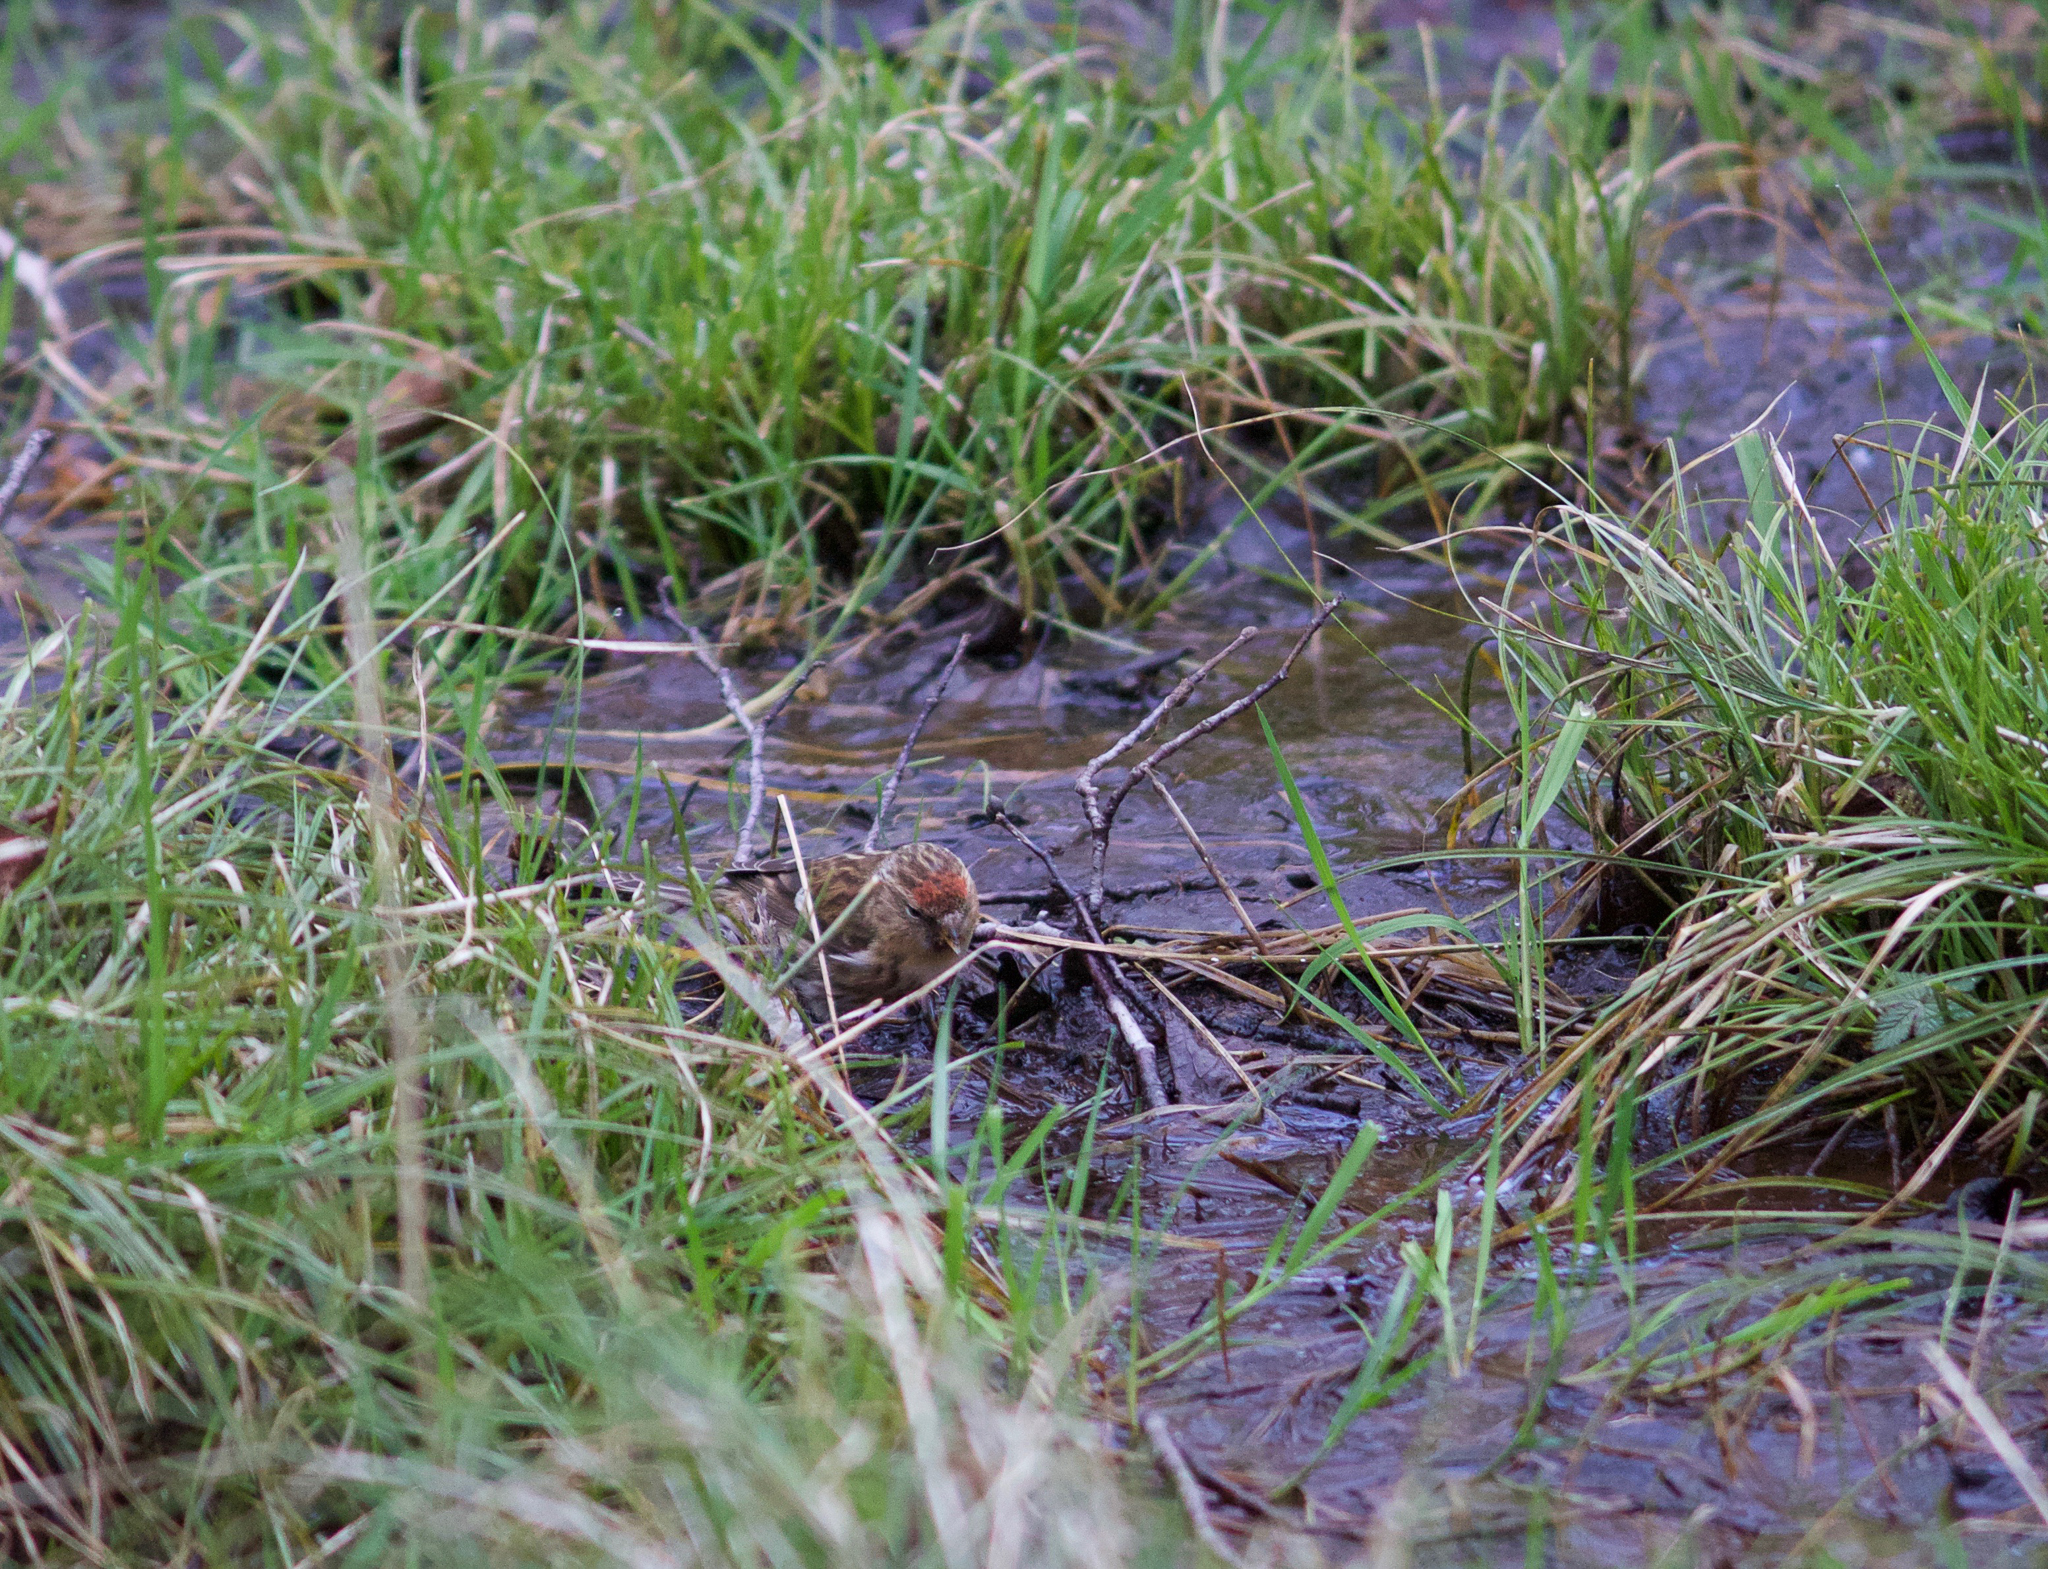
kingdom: Animalia
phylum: Chordata
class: Aves
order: Passeriformes
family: Fringillidae
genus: Acanthis
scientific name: Acanthis flammea
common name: Common redpoll
